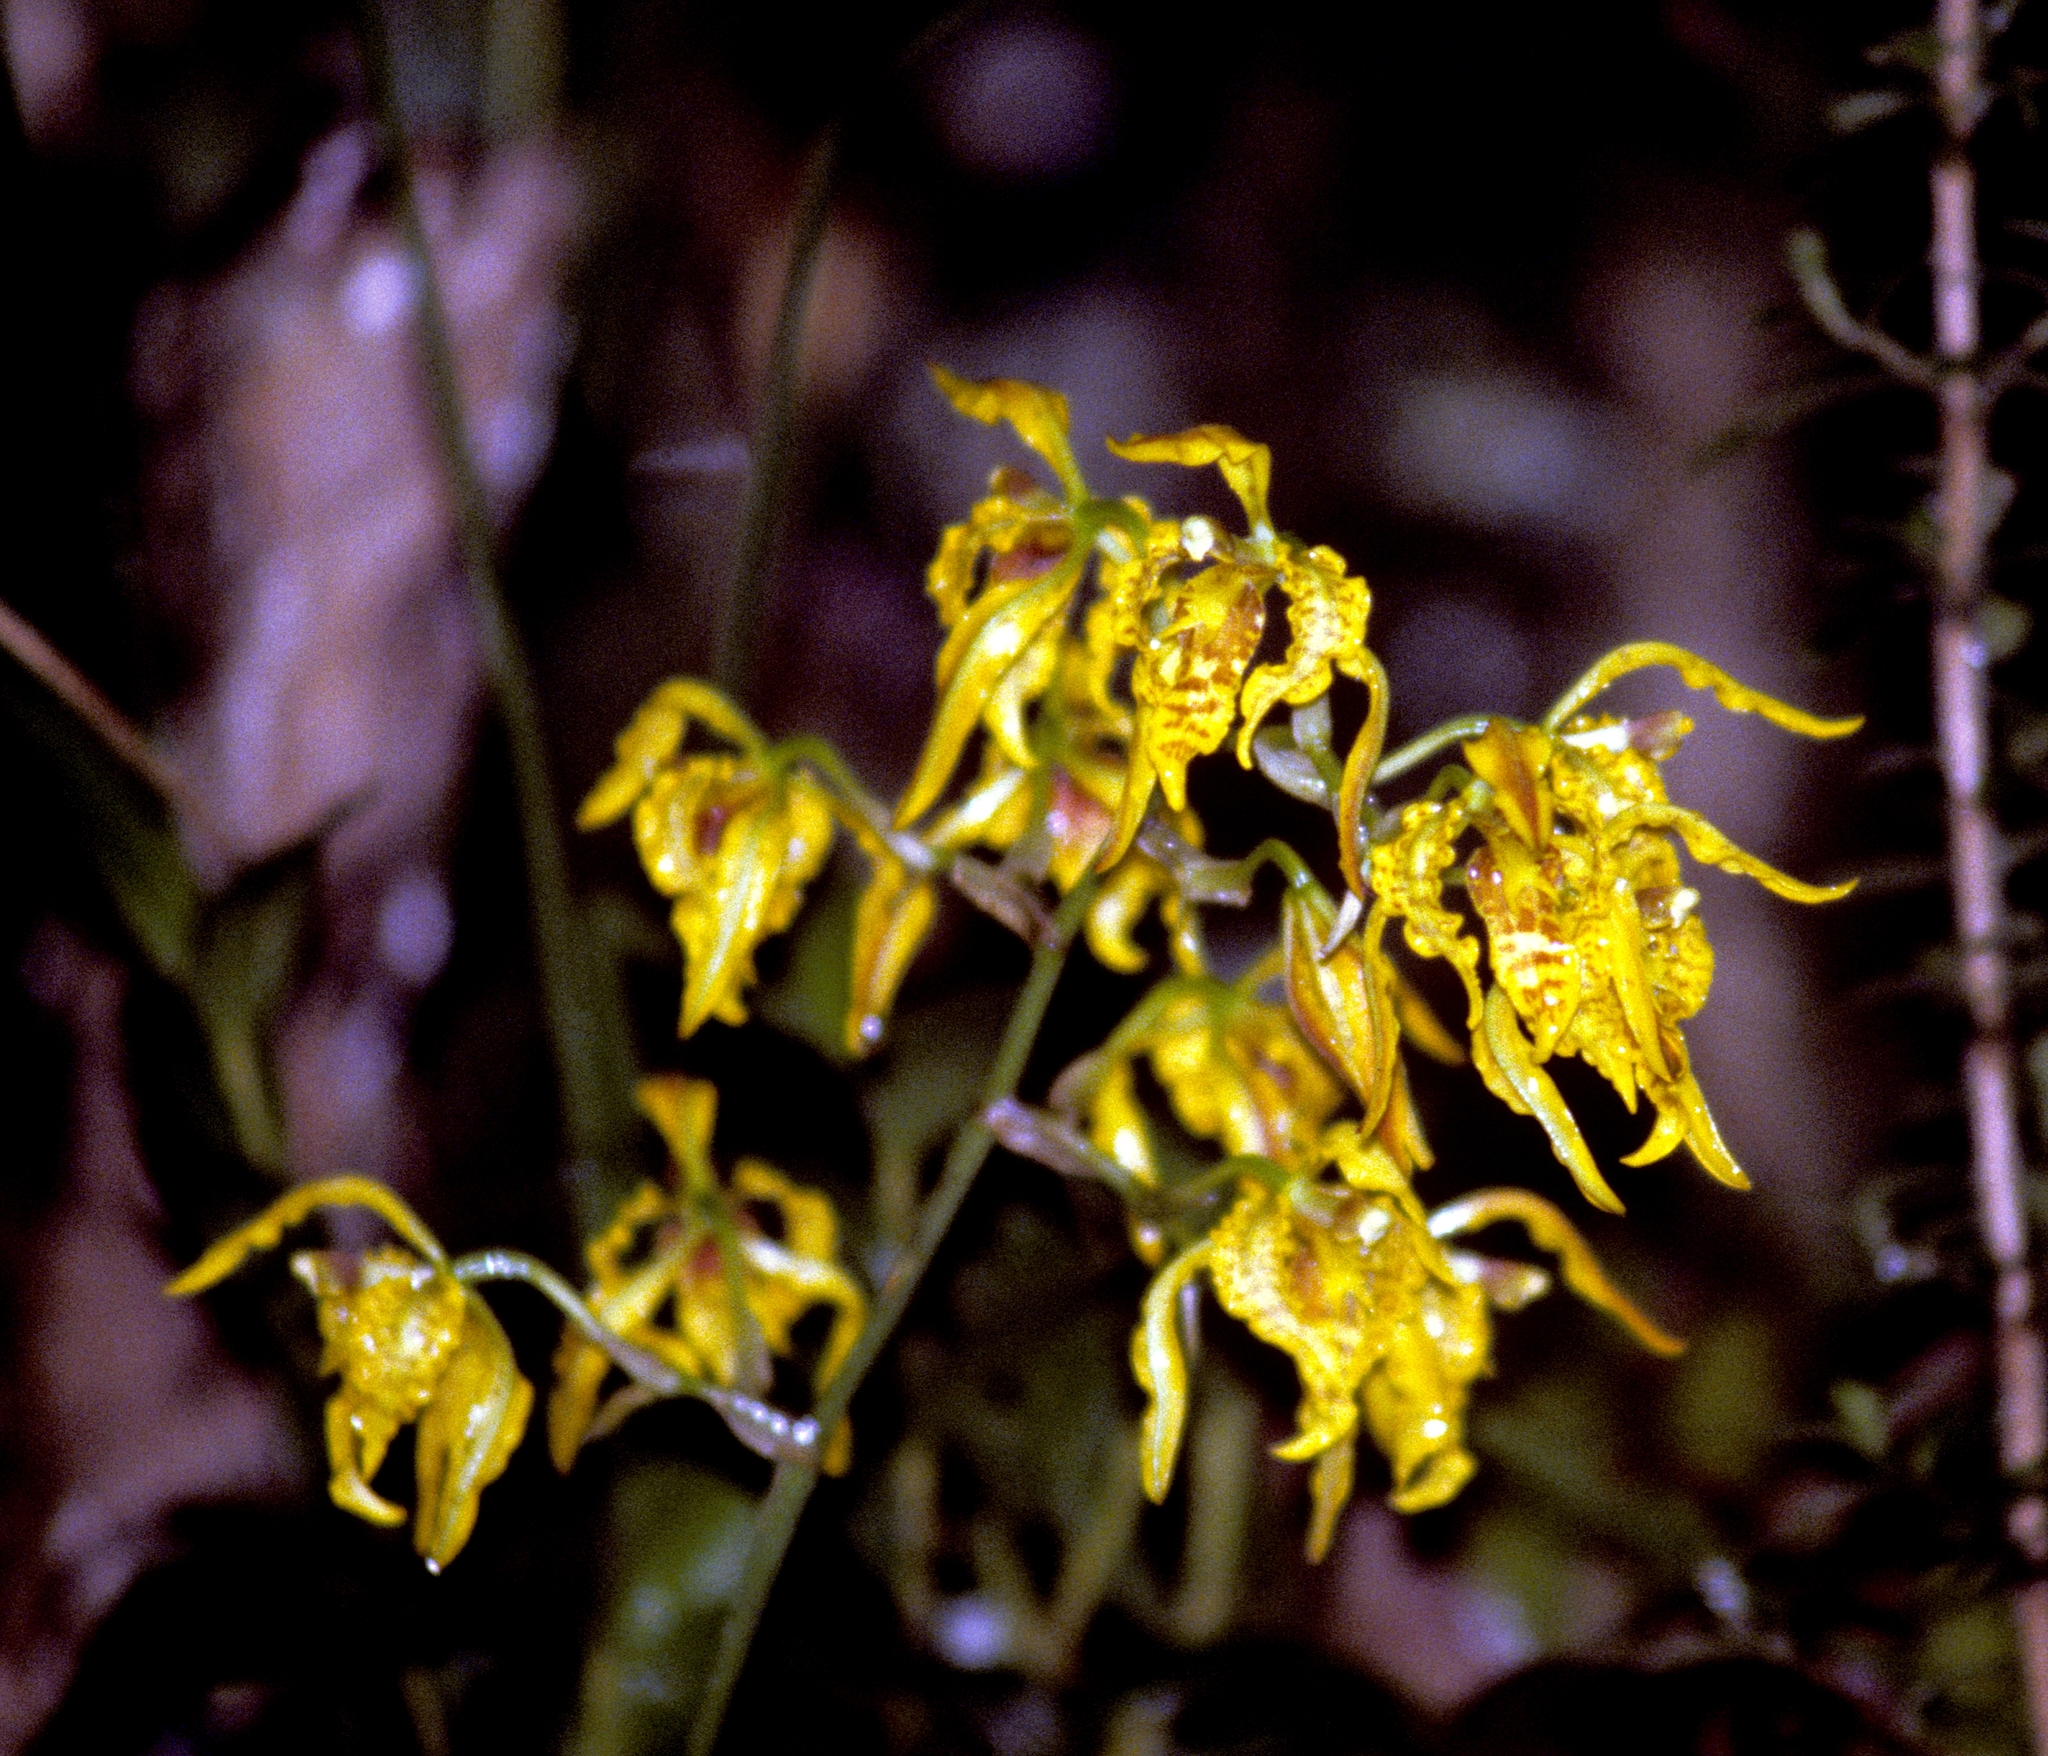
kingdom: Plantae
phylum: Tracheophyta
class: Liliopsida
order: Asparagales
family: Orchidaceae
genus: Cyrtochilum
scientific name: Cyrtochilum pardinum
